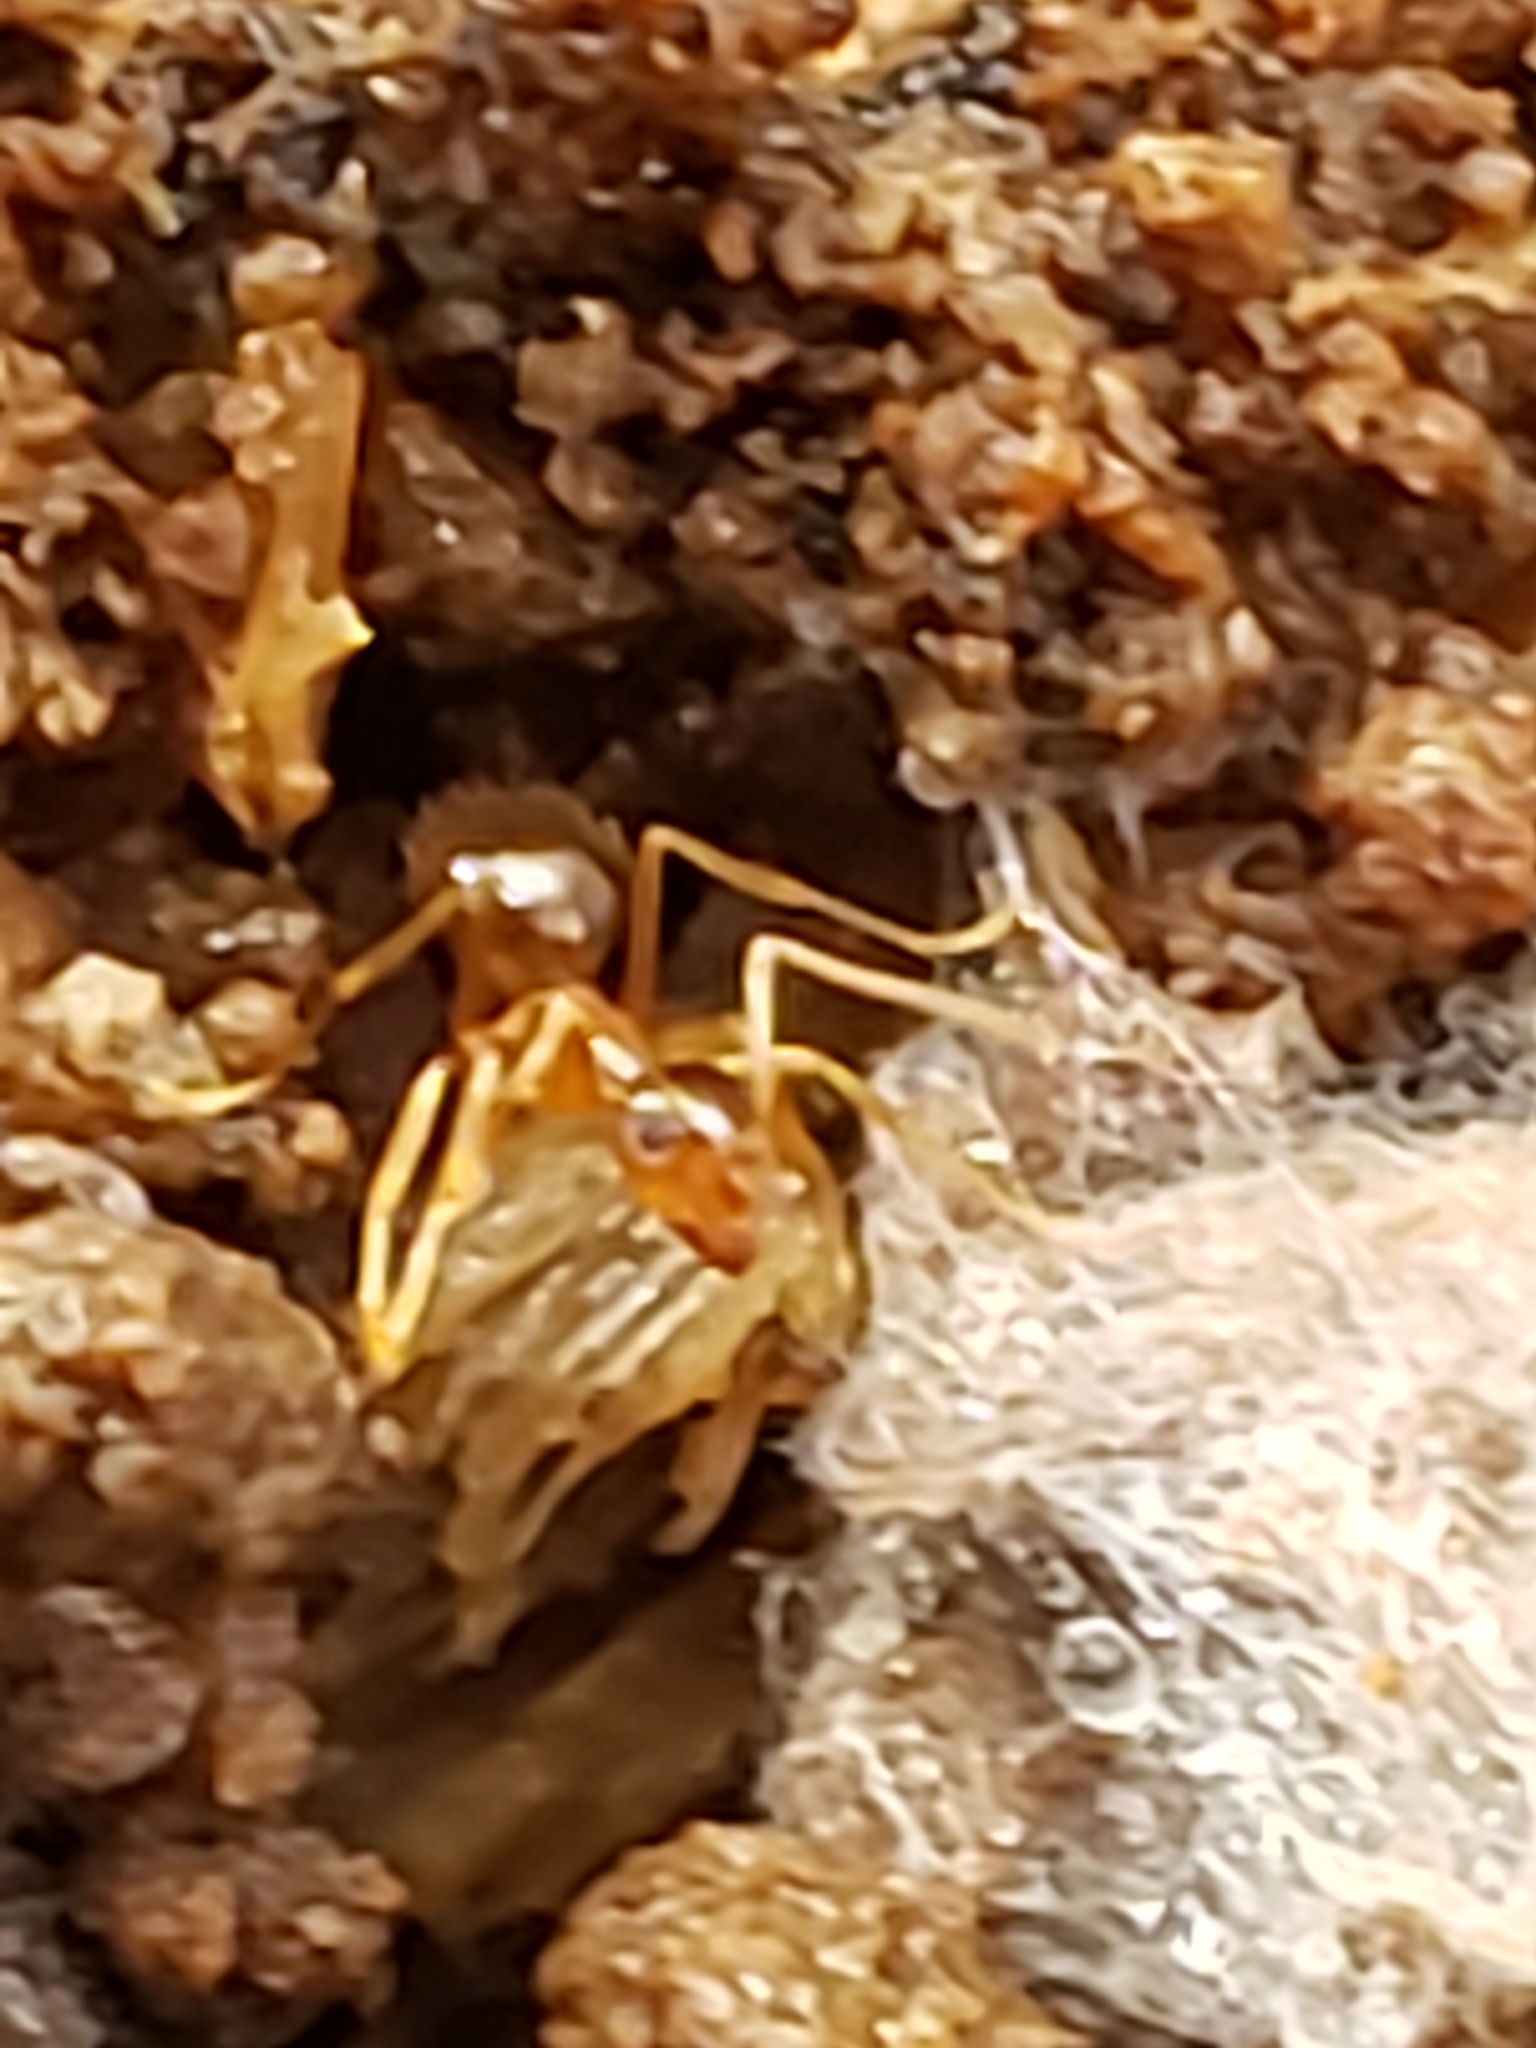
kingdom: Animalia
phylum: Arthropoda
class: Insecta
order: Hymenoptera
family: Formicidae
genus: Prenolepis
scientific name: Prenolepis imparis
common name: Small honey ant
